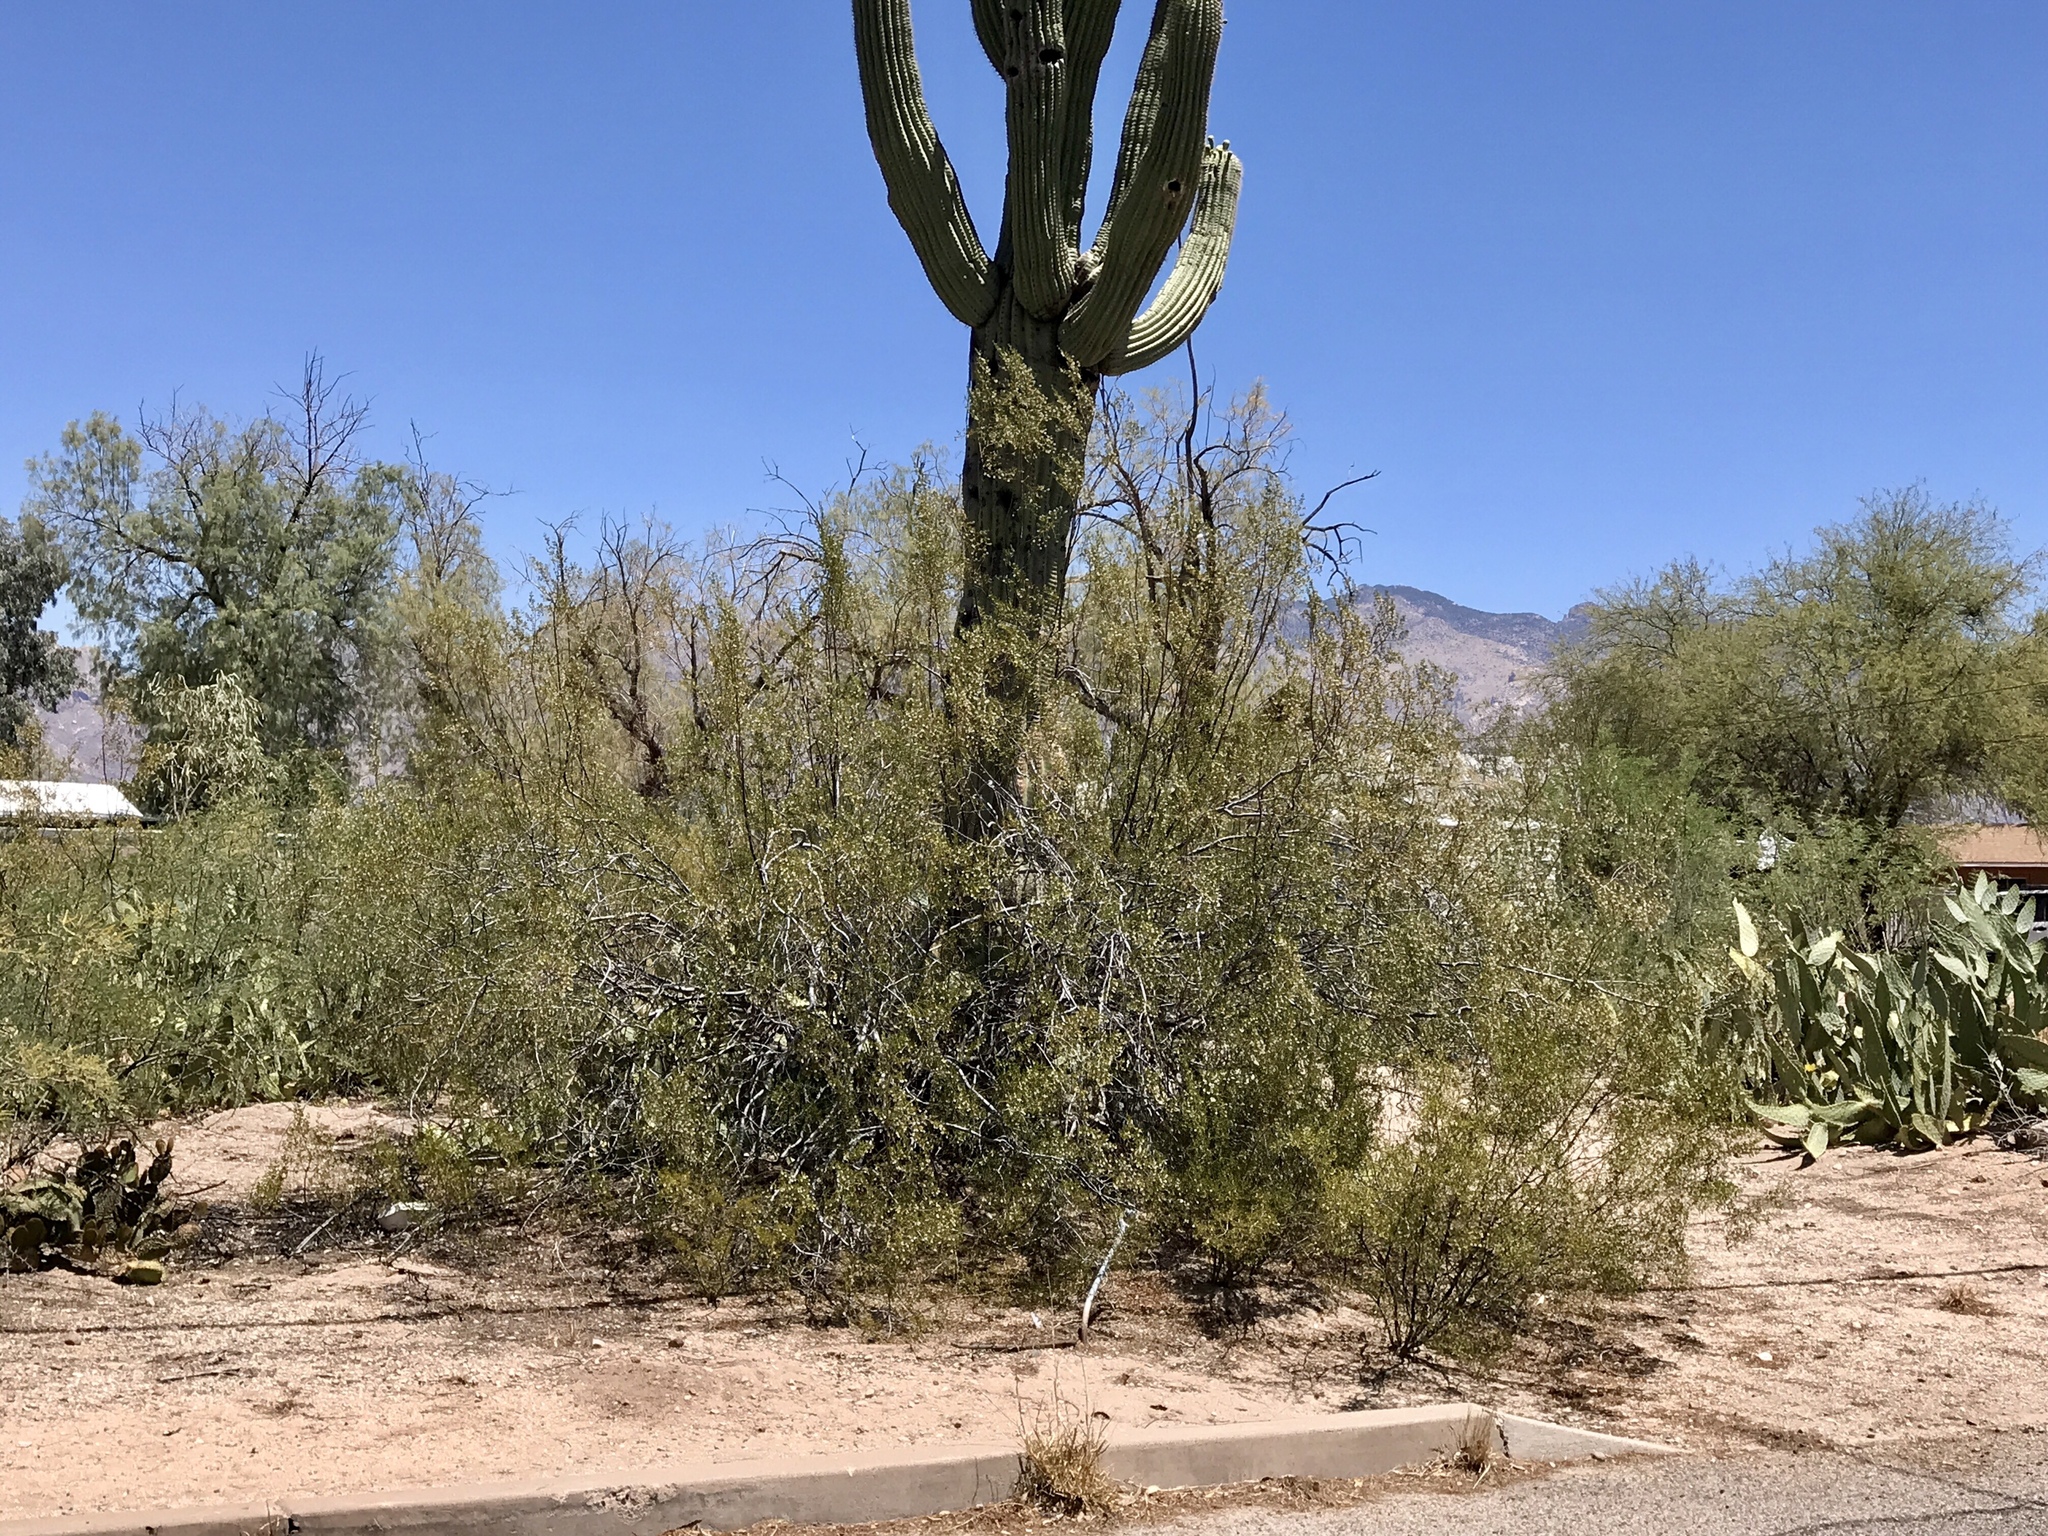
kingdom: Plantae
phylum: Tracheophyta
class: Magnoliopsida
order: Zygophyllales
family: Zygophyllaceae
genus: Larrea
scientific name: Larrea tridentata
